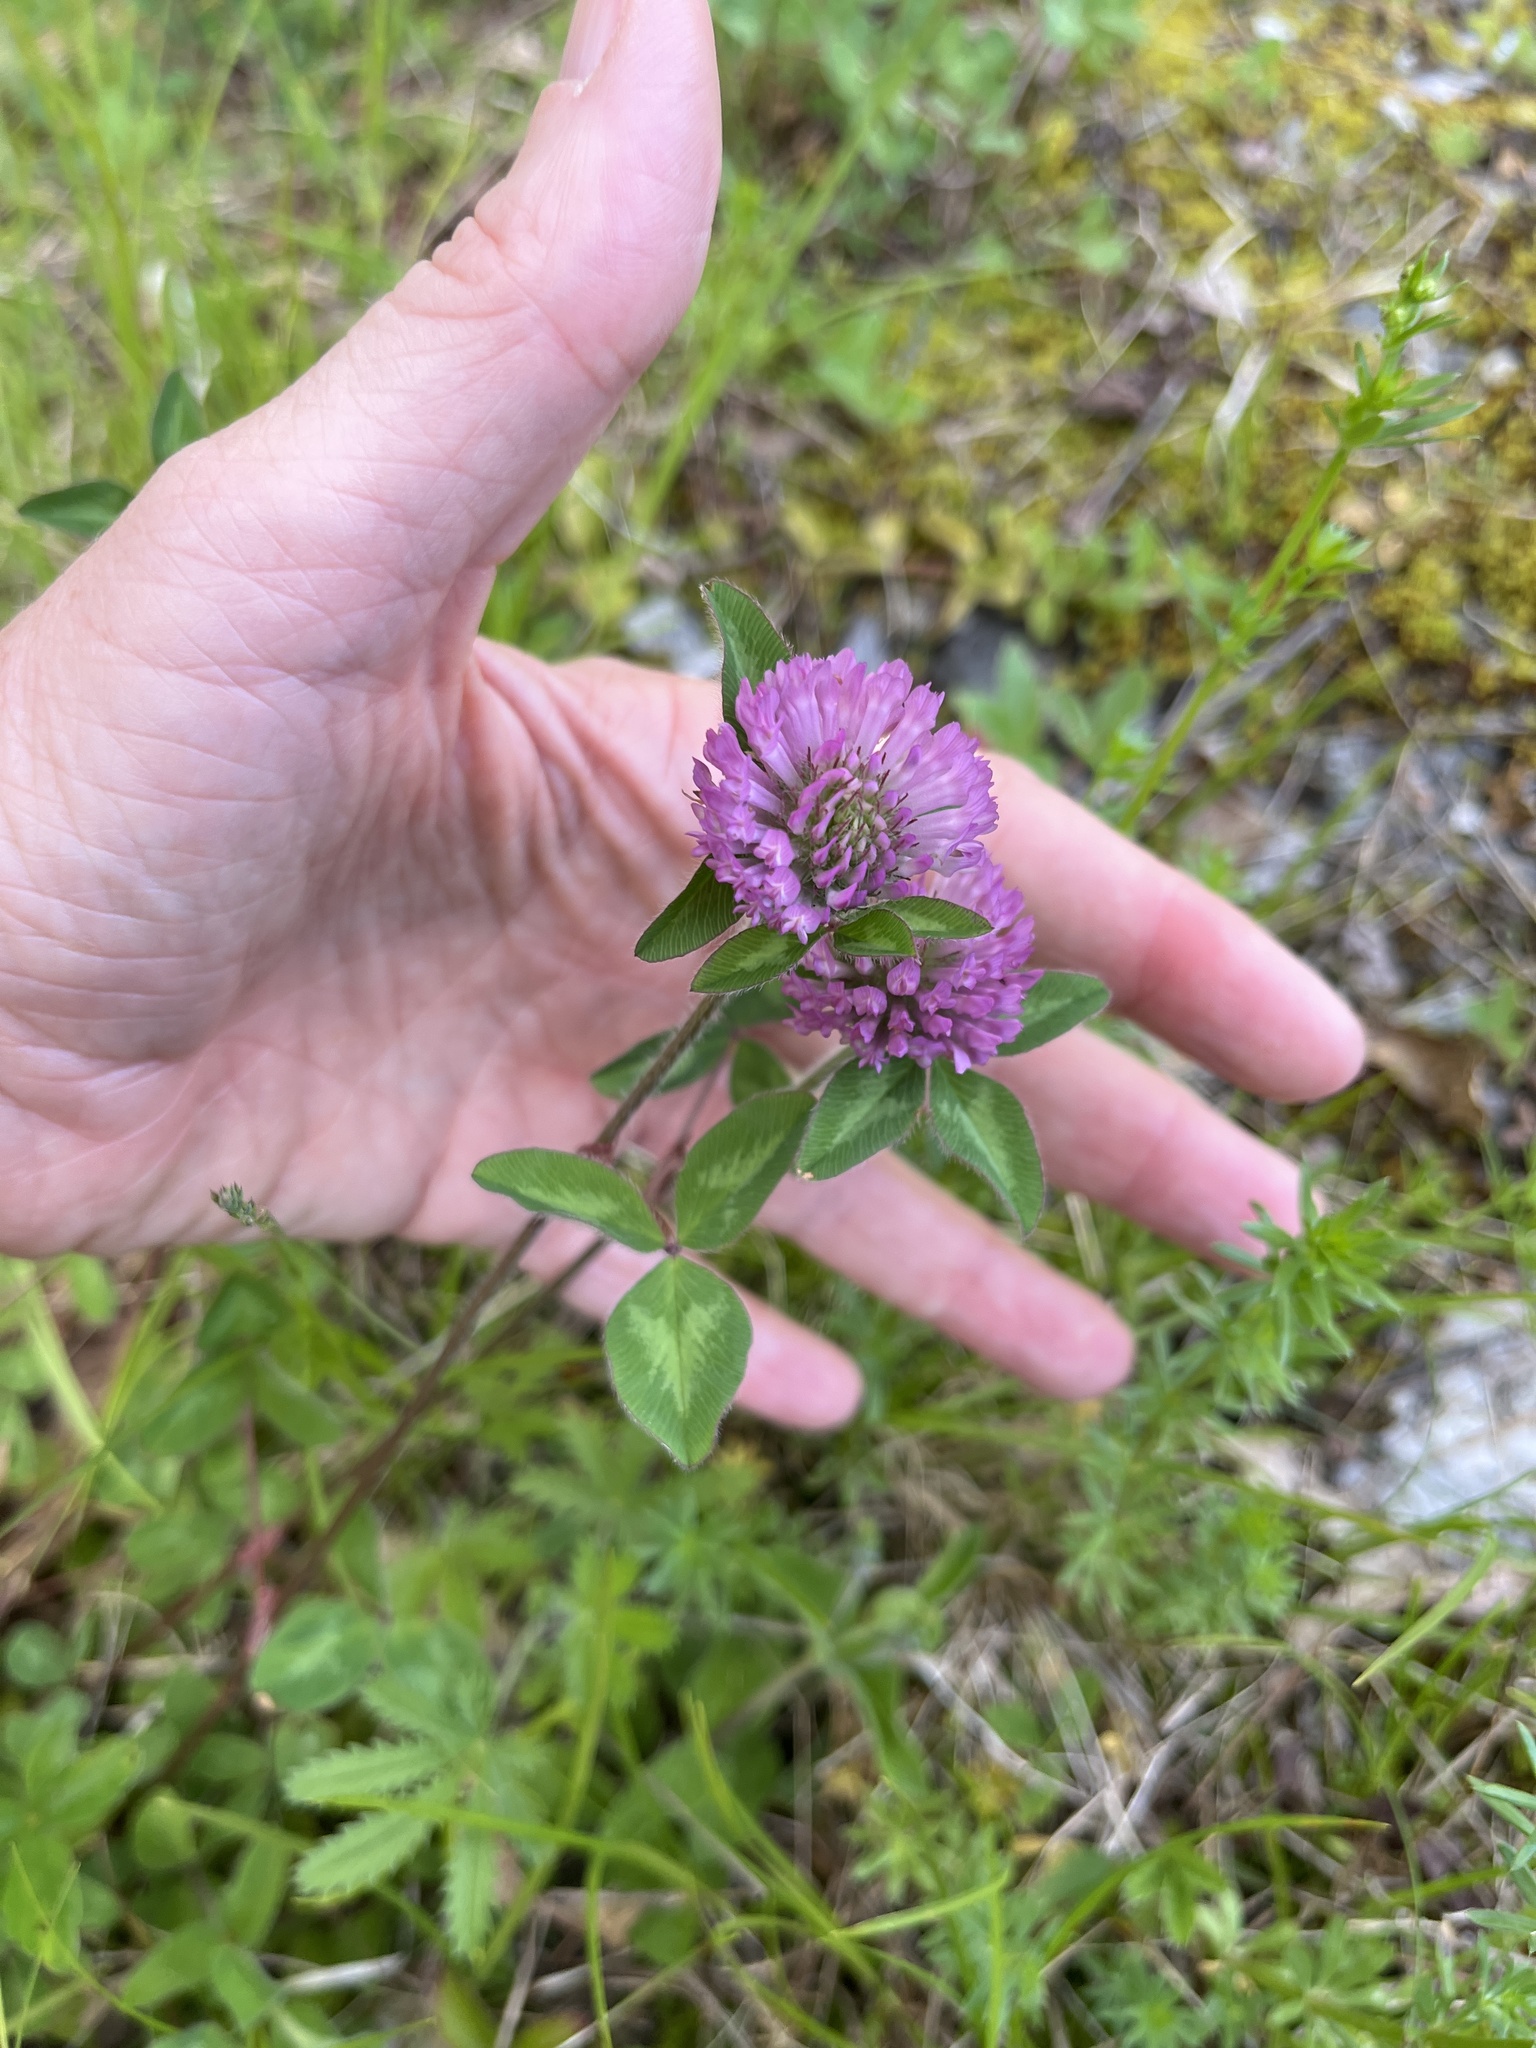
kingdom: Plantae
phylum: Tracheophyta
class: Magnoliopsida
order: Fabales
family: Fabaceae
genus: Trifolium
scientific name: Trifolium pratense
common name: Red clover
